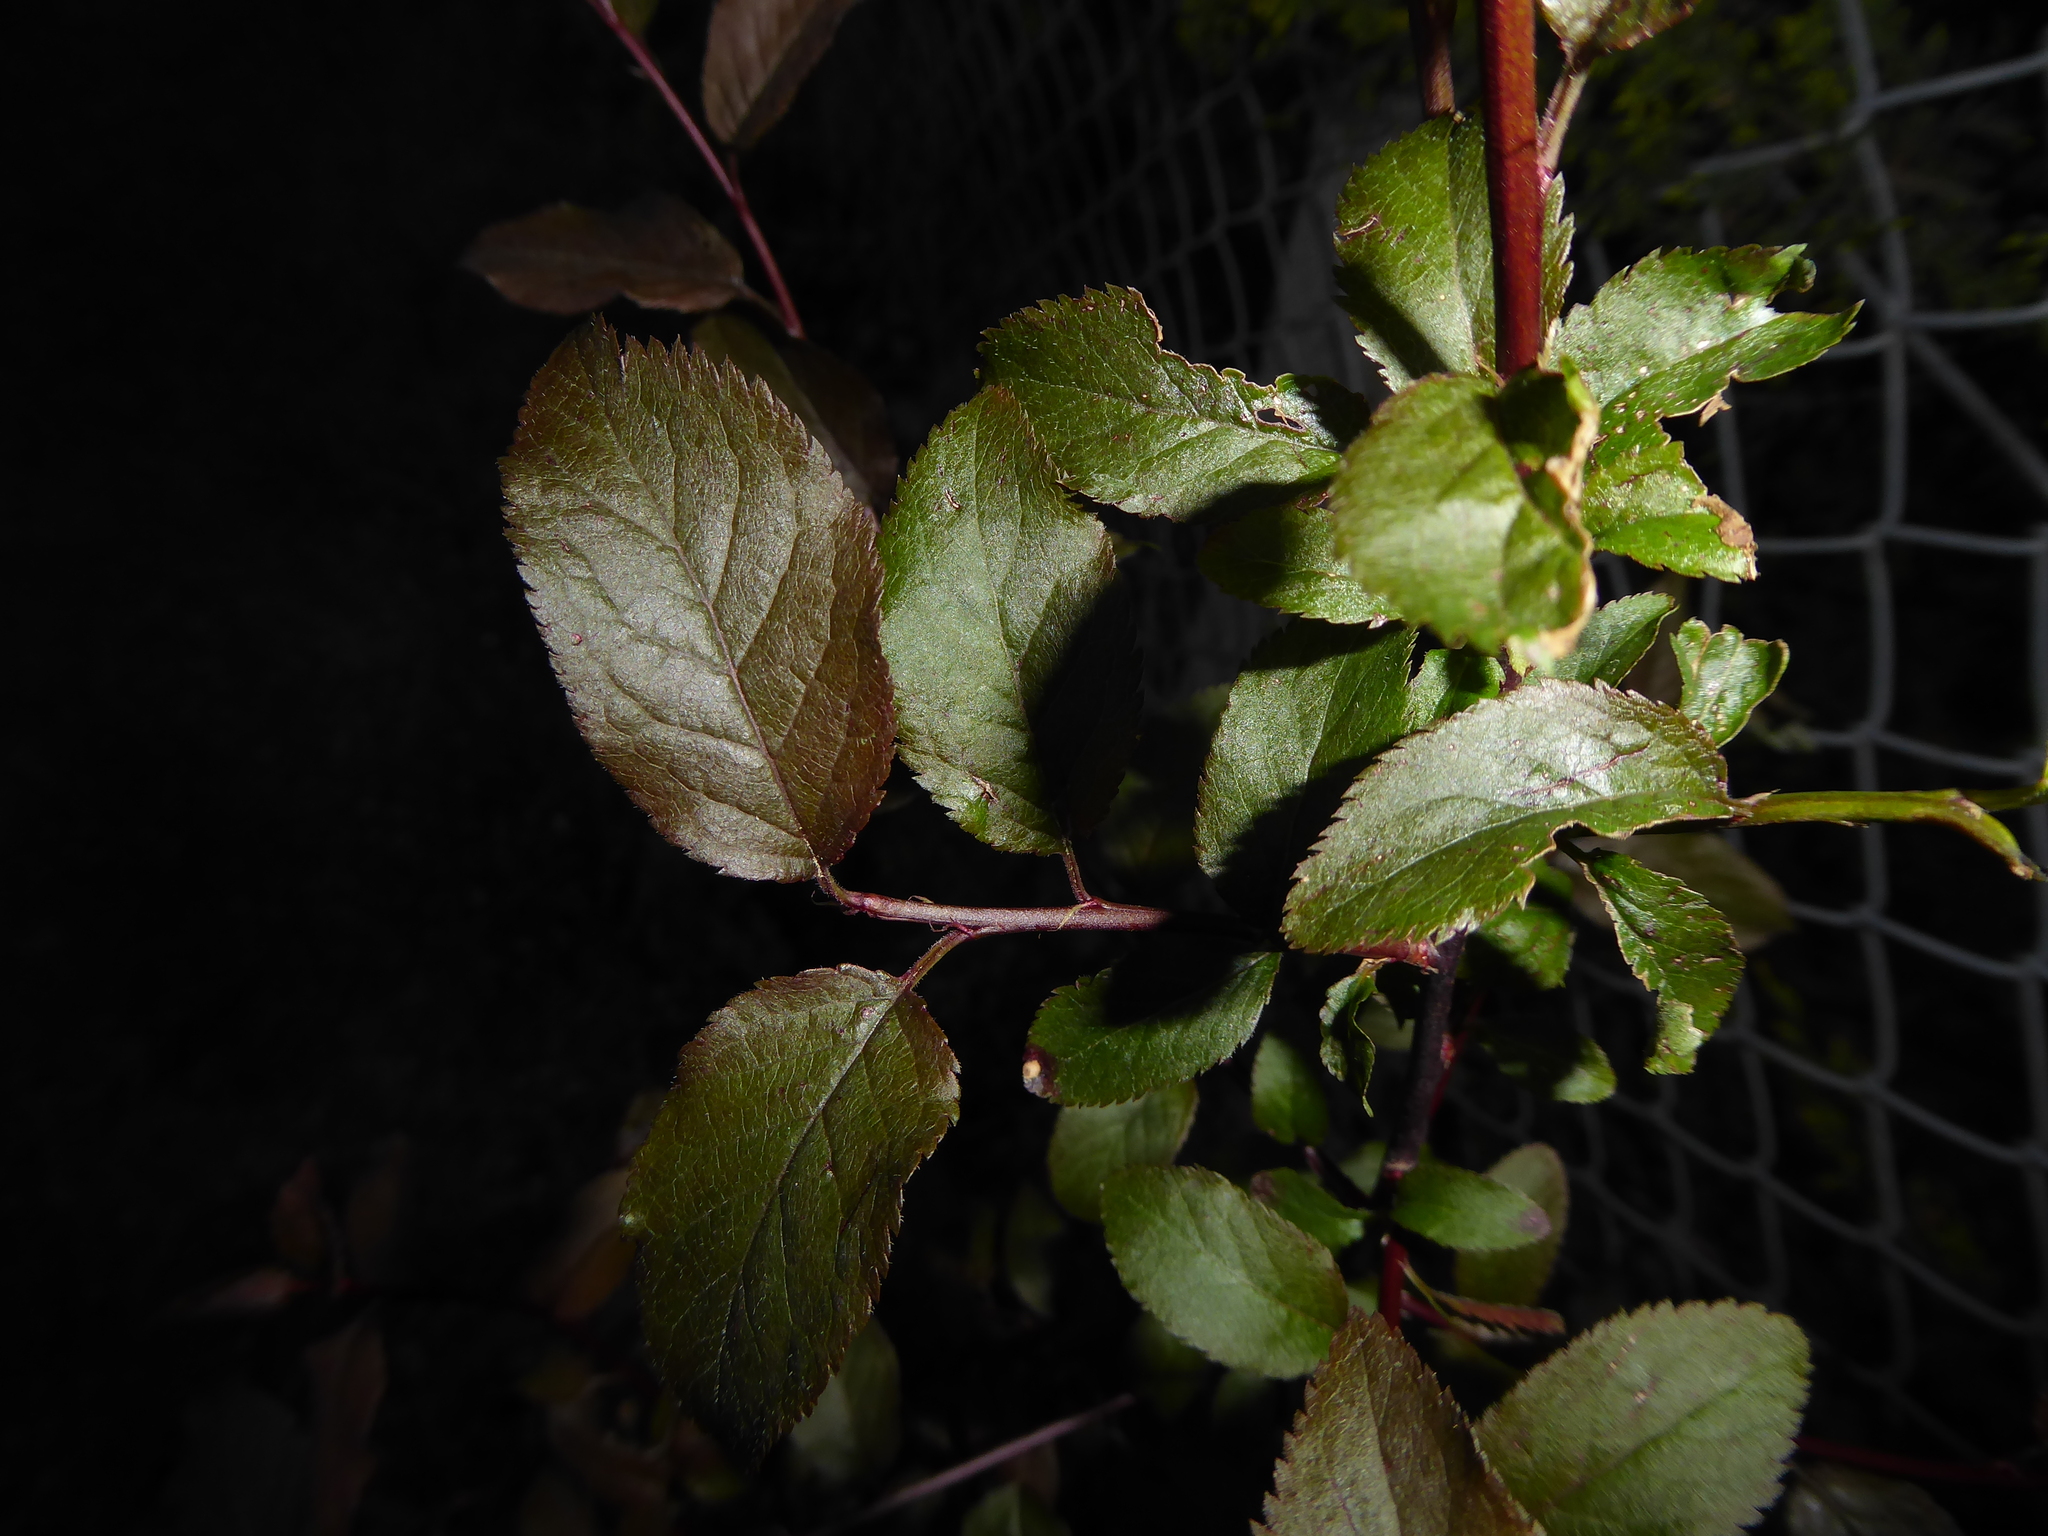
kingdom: Plantae
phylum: Tracheophyta
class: Magnoliopsida
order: Rosales
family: Rosaceae
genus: Prunus
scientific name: Prunus cerasifera
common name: Cherry plum
